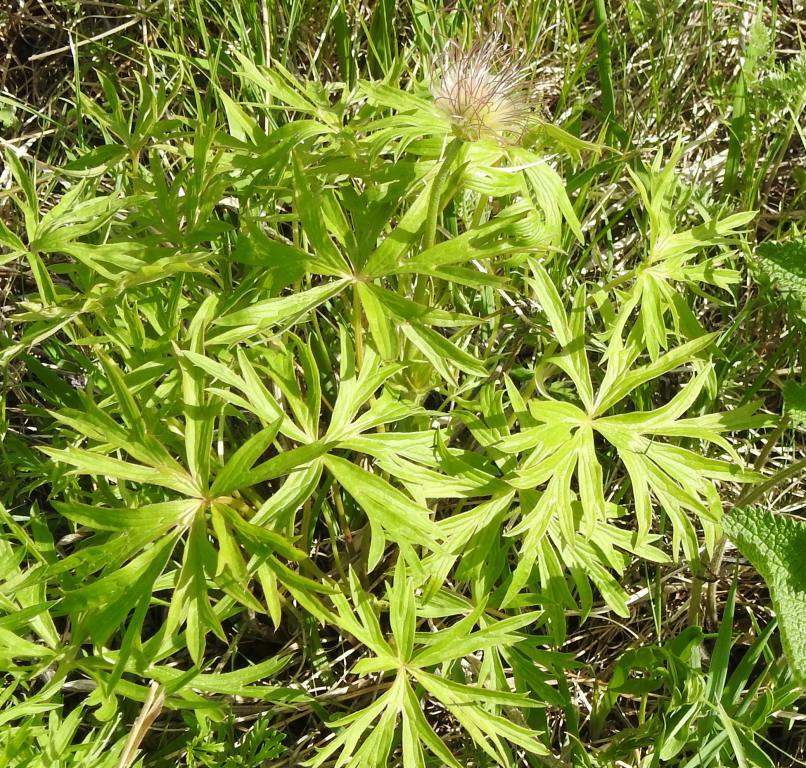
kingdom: Plantae
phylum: Tracheophyta
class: Magnoliopsida
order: Ranunculales
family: Ranunculaceae
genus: Pulsatilla
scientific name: Pulsatilla patens
